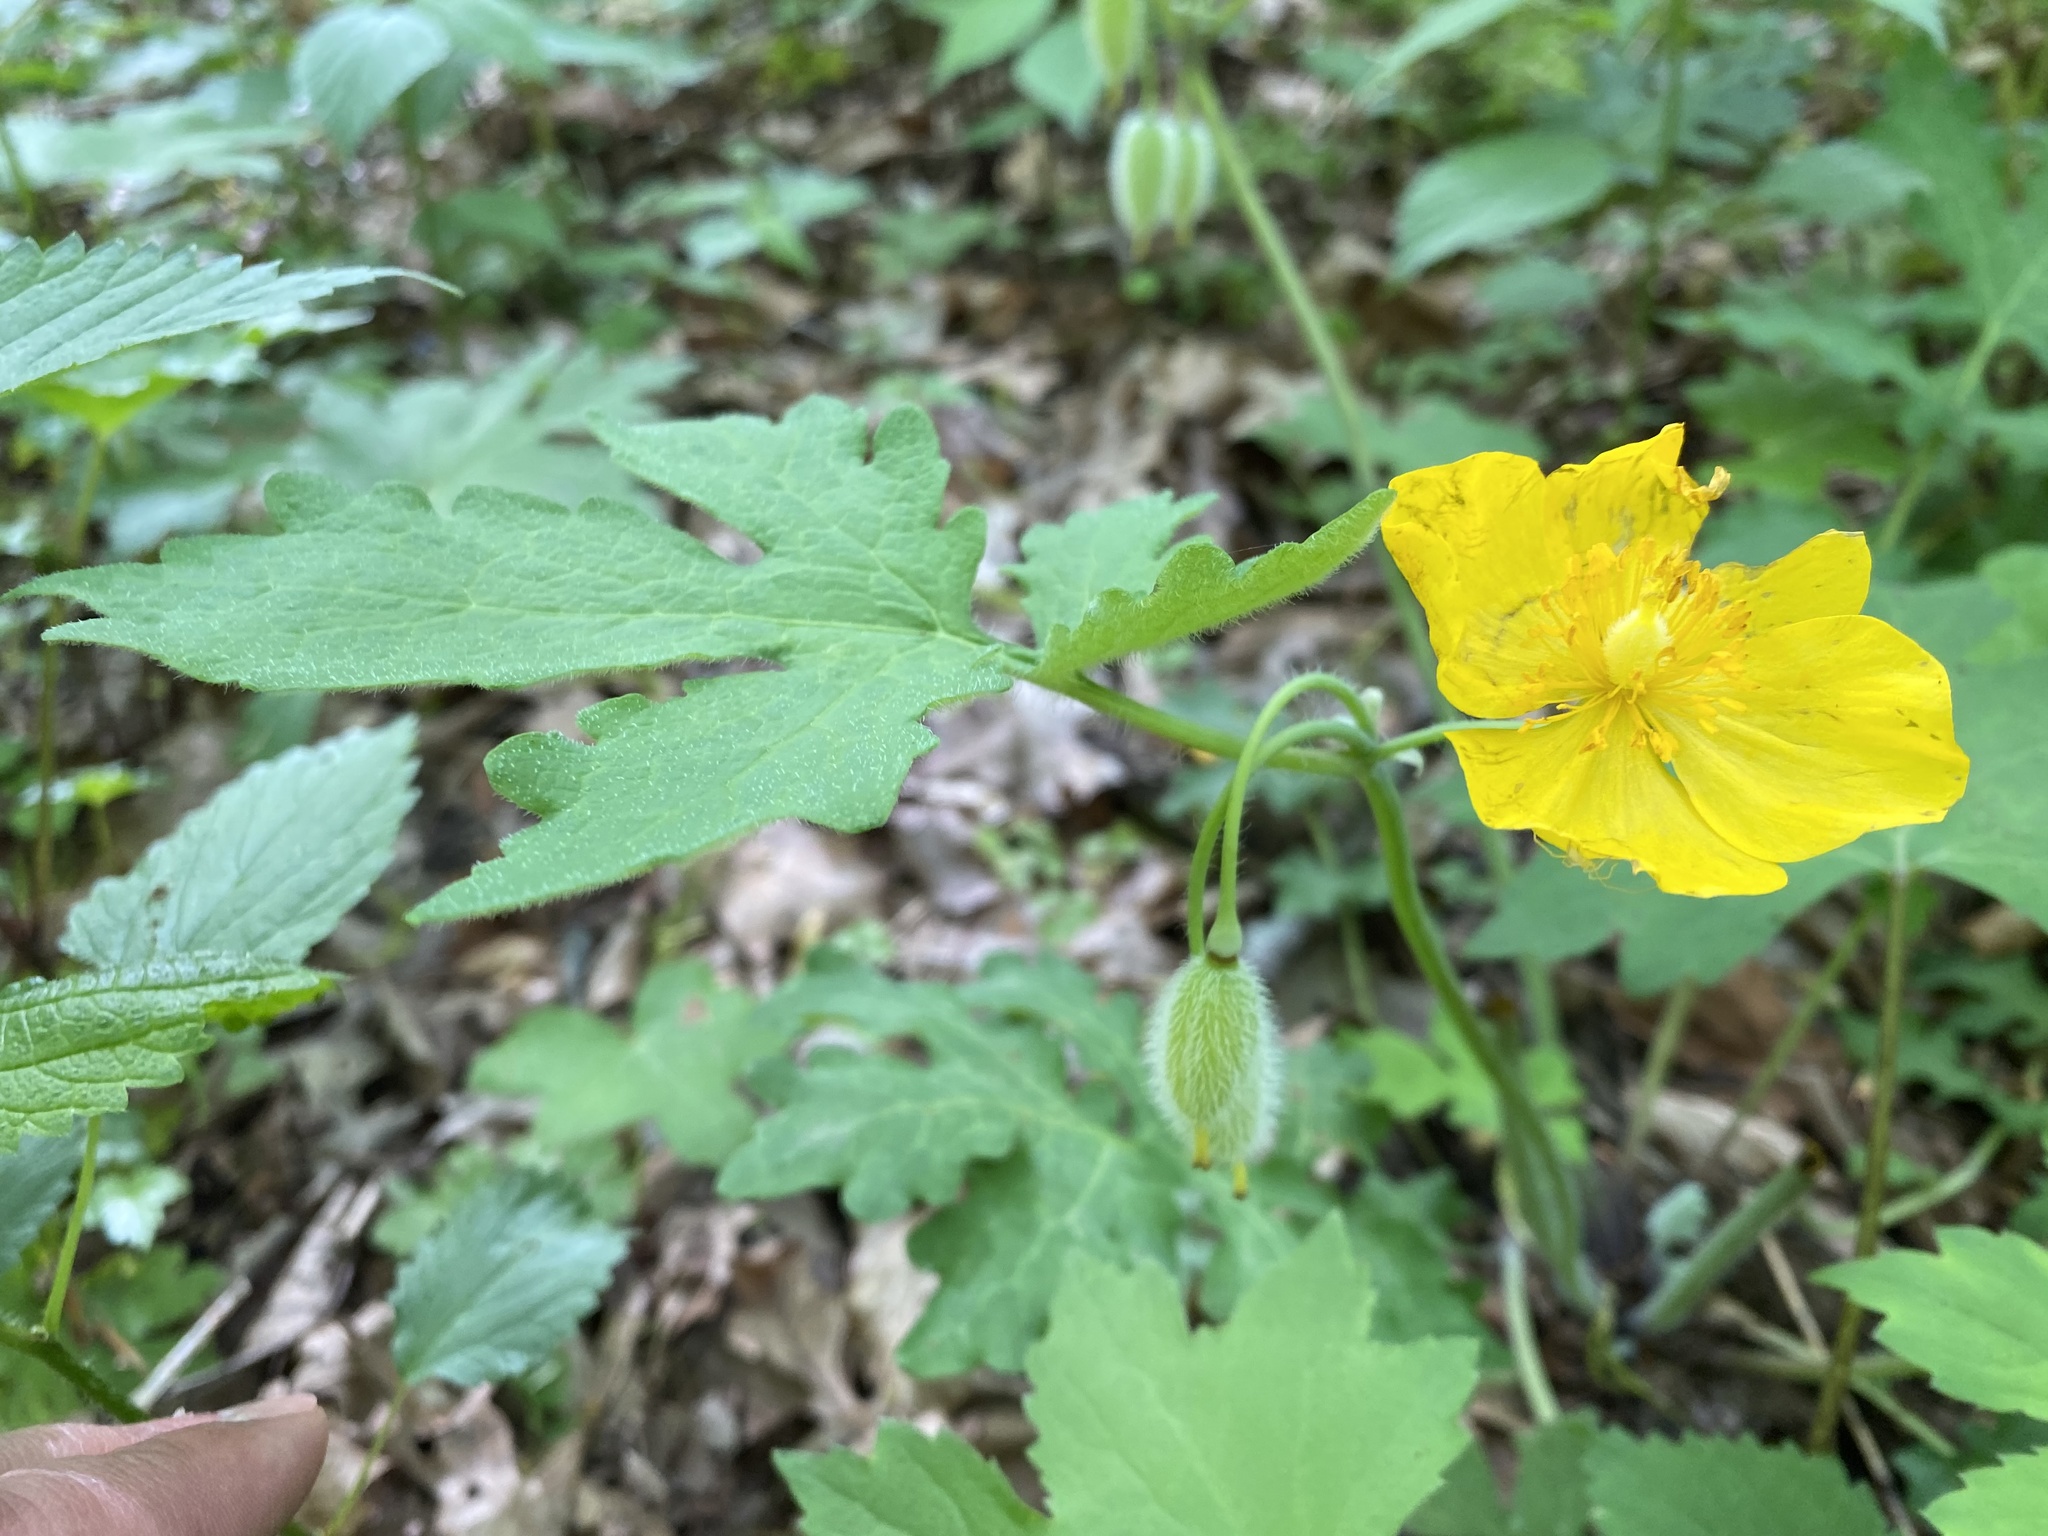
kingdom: Plantae
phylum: Tracheophyta
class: Magnoliopsida
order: Ranunculales
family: Papaveraceae
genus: Stylophorum
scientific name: Stylophorum diphyllum
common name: Celandine poppy
